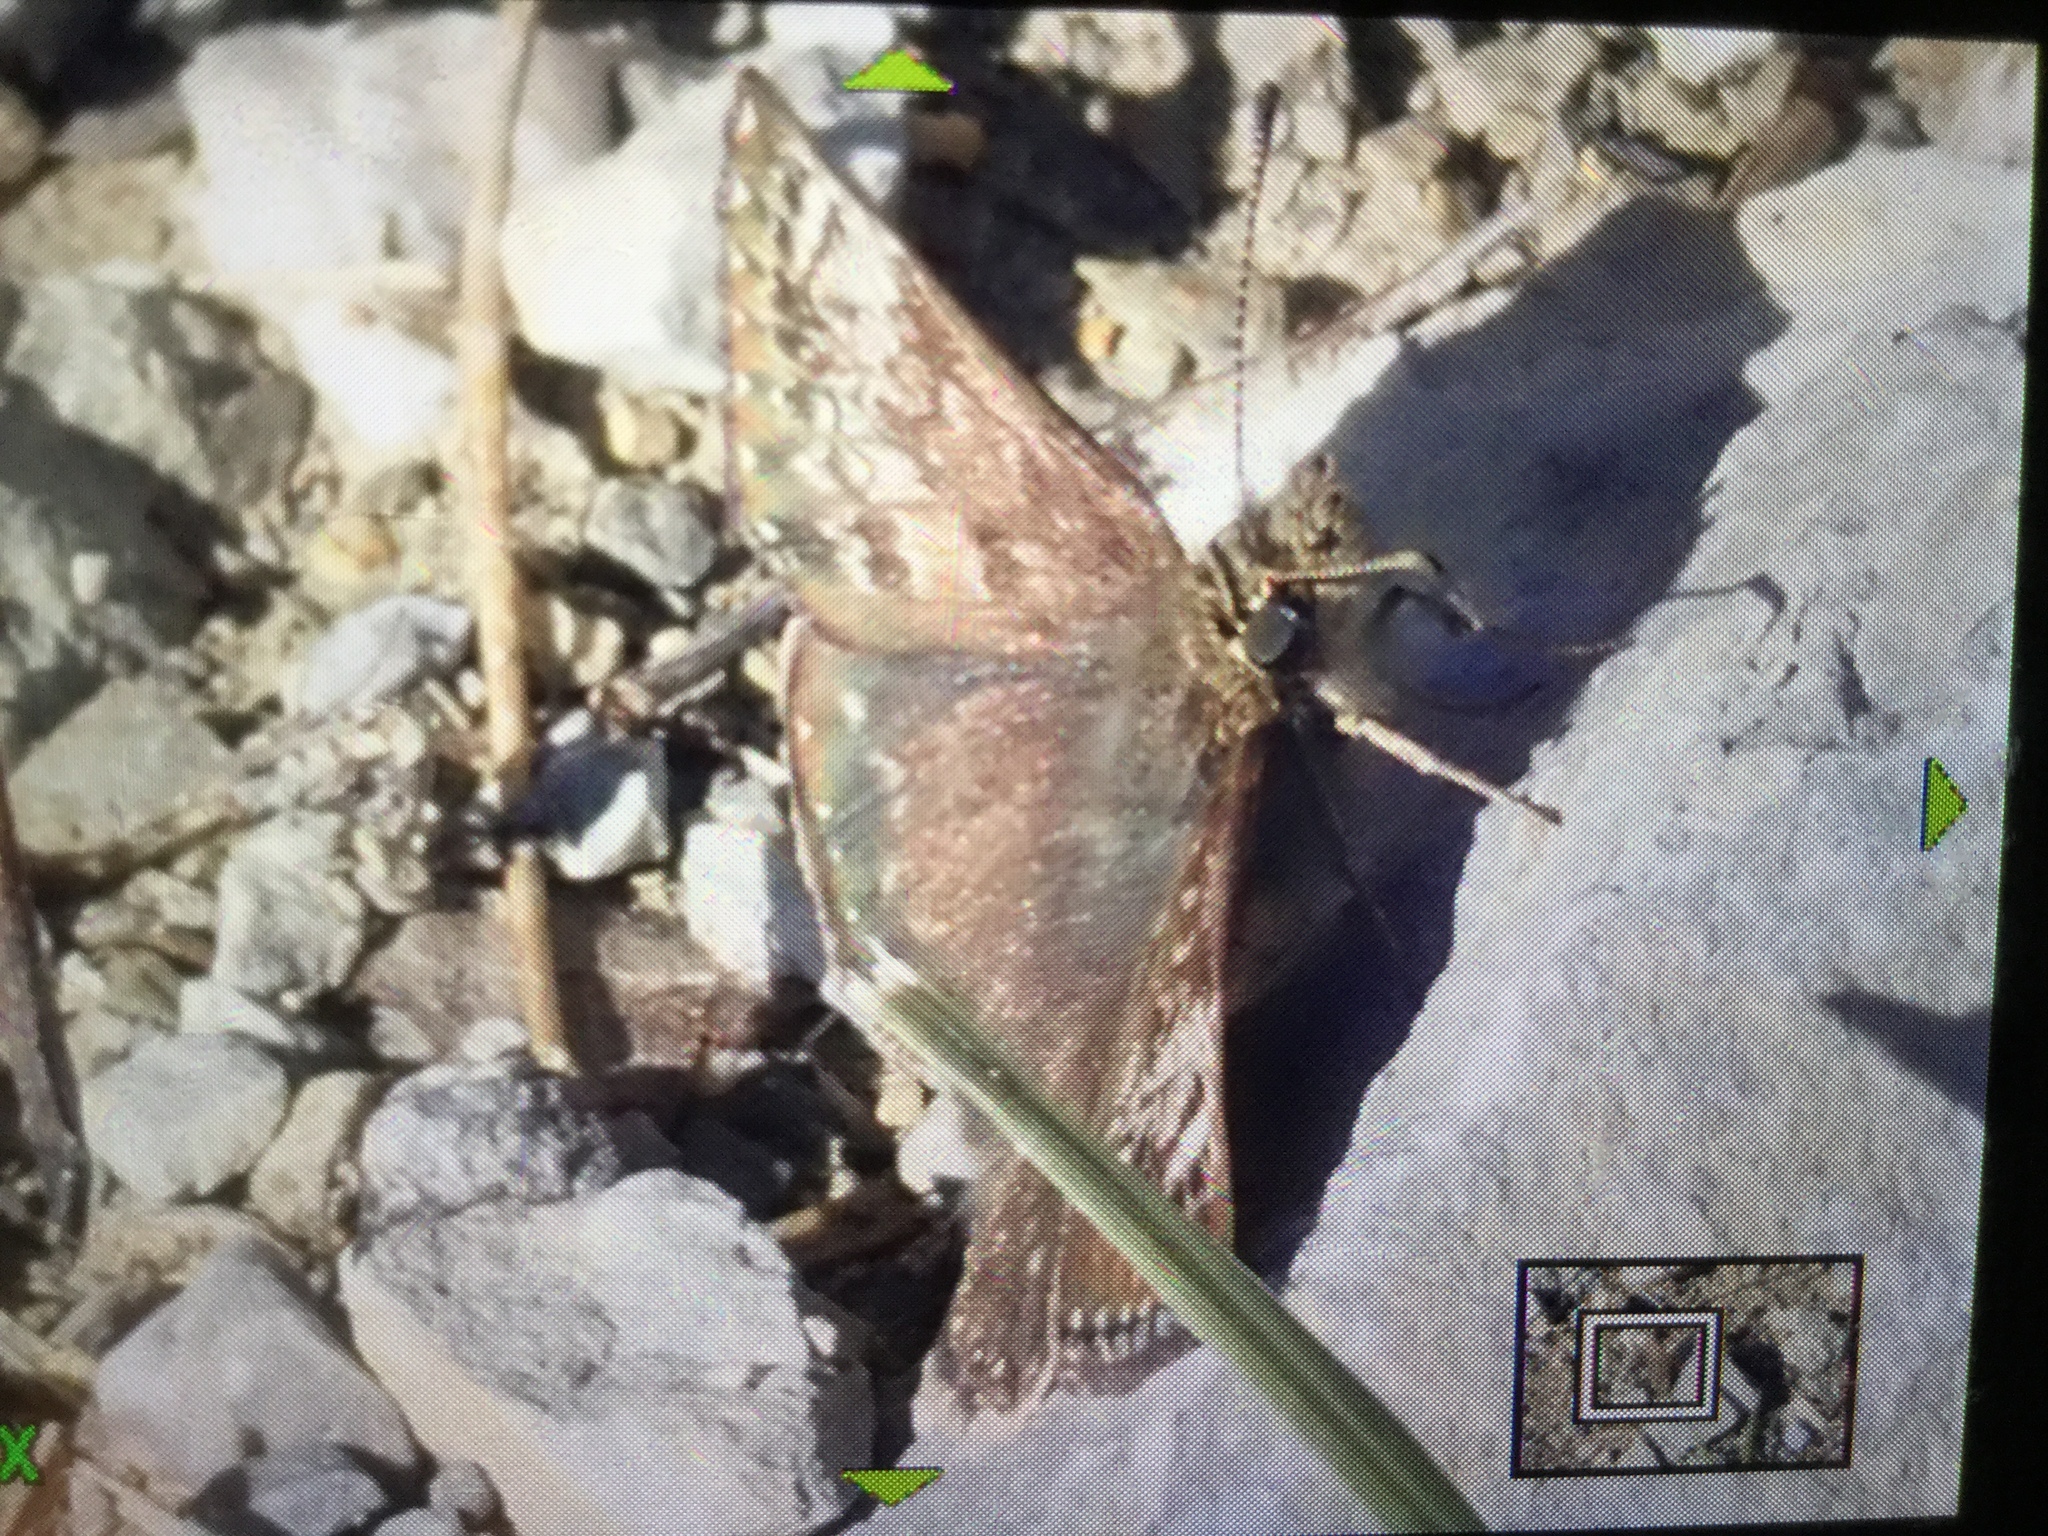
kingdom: Animalia
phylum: Arthropoda
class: Insecta
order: Lepidoptera
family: Hesperiidae
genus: Erynnis
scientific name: Erynnis tages
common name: Dingy skipper
